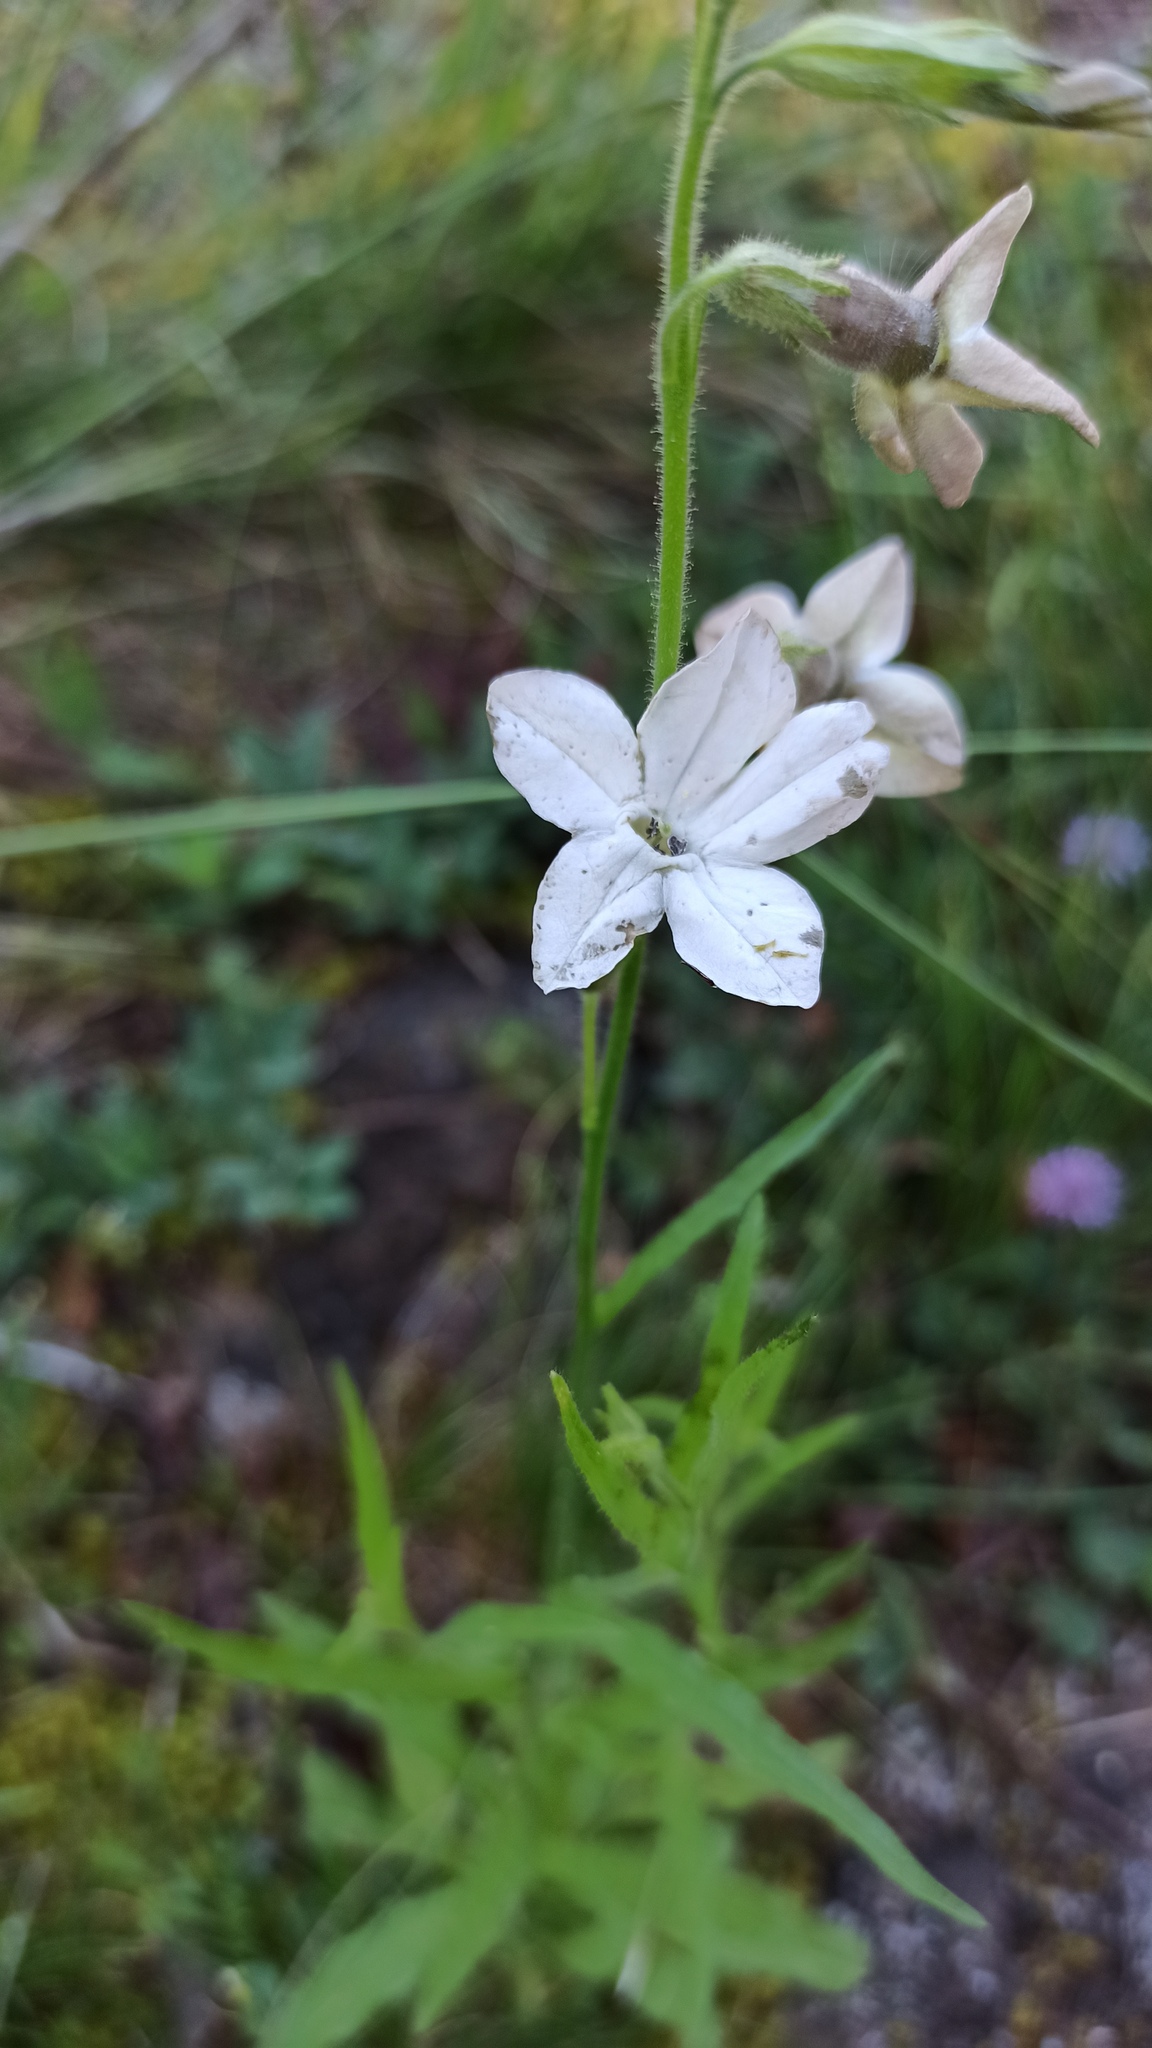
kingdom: Plantae
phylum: Tracheophyta
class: Magnoliopsida
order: Solanales
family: Solanaceae
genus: Nicotiana
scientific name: Nicotiana bonariensis
